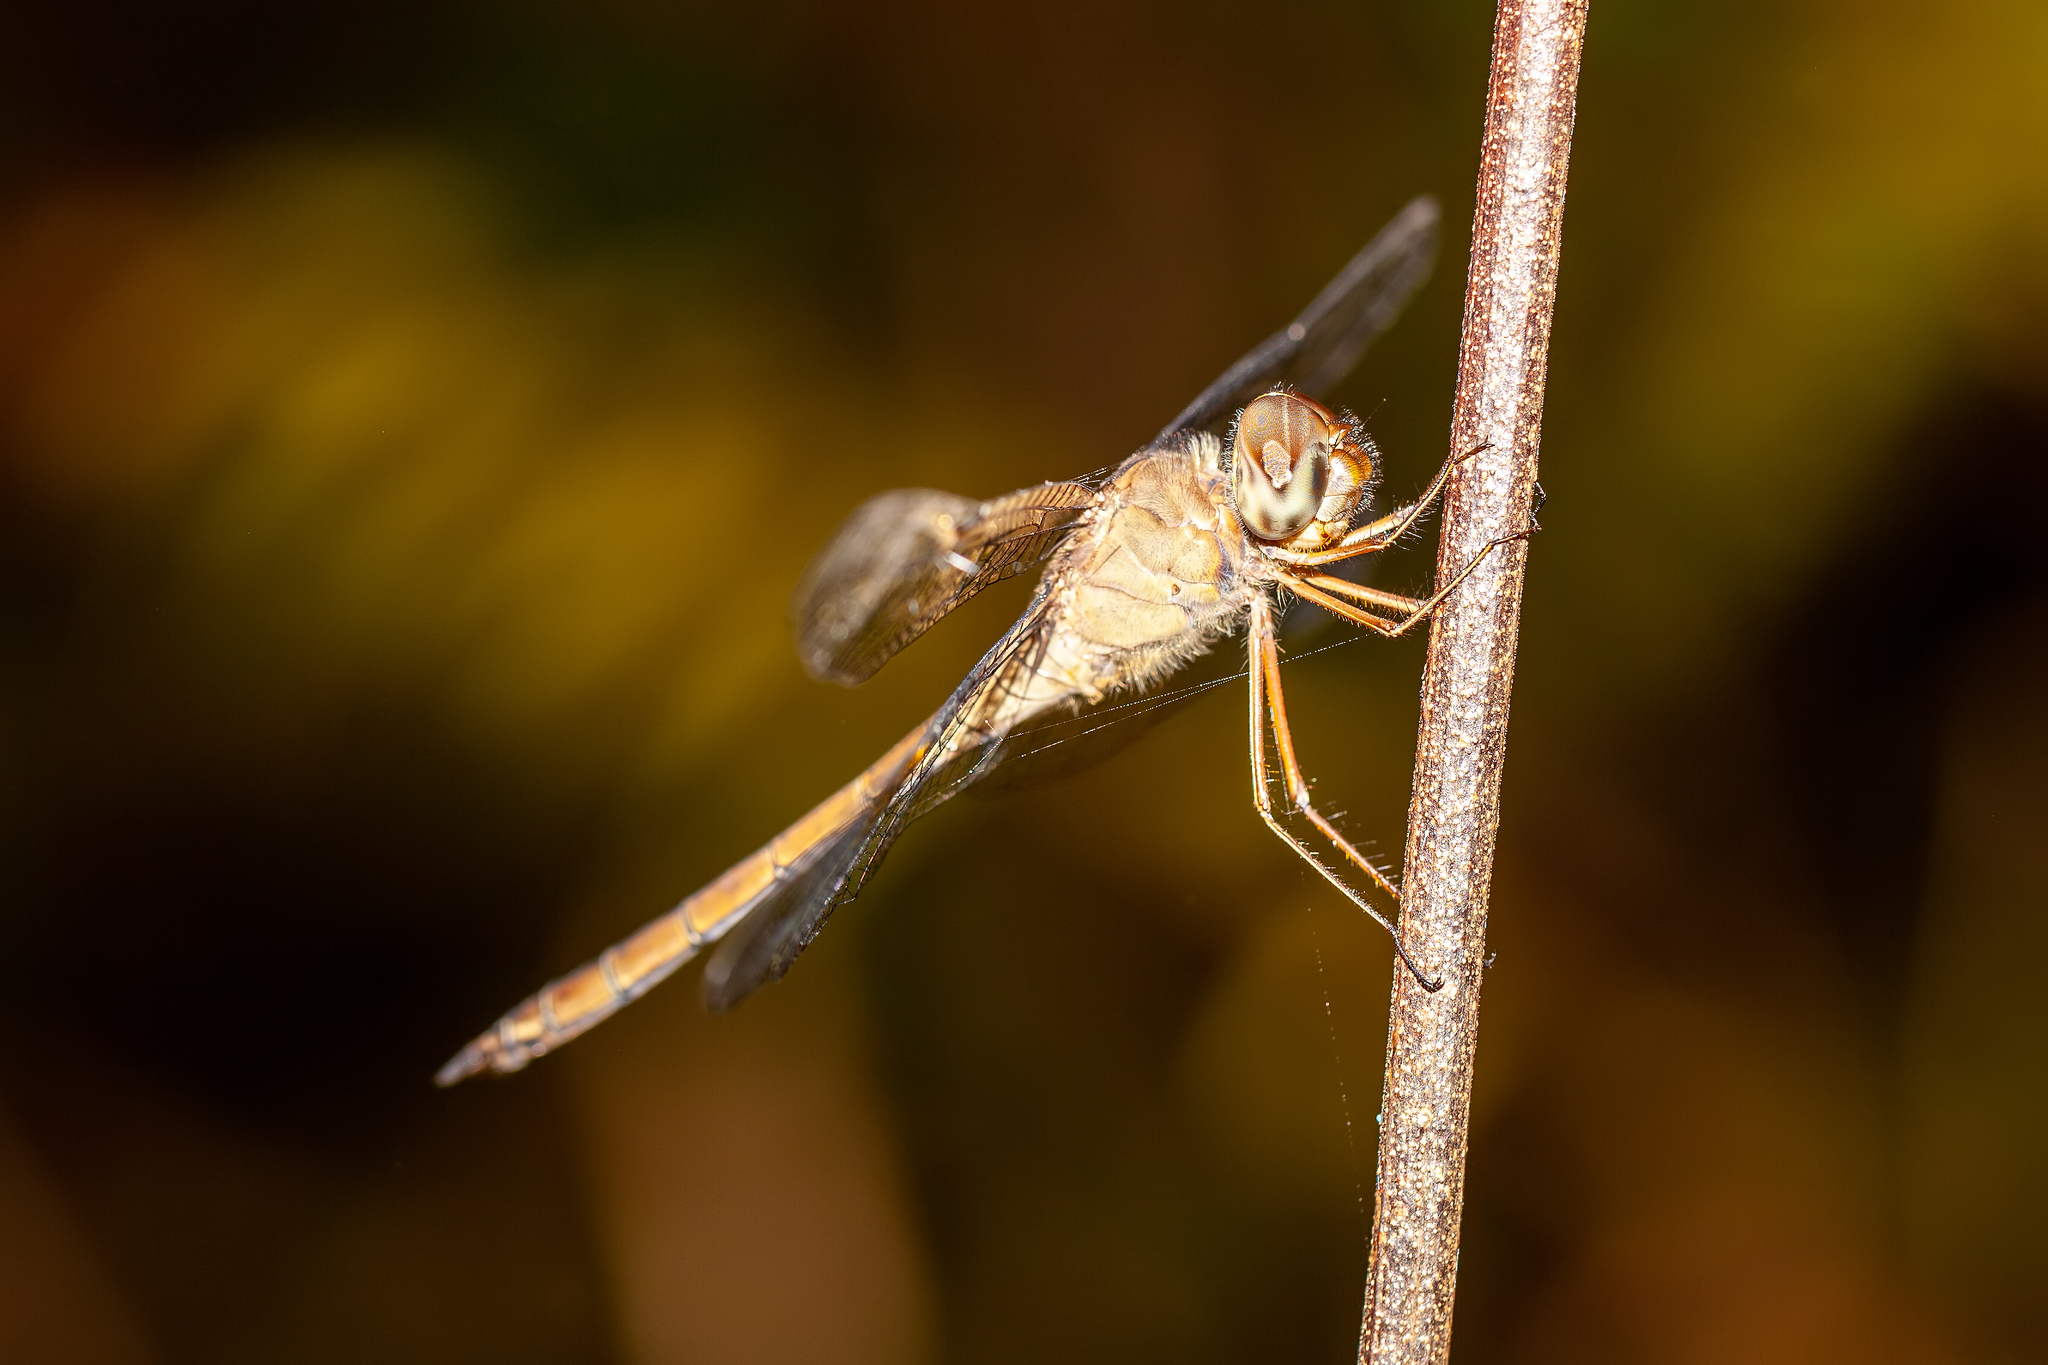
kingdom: Animalia
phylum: Arthropoda
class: Insecta
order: Odonata
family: Libellulidae
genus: Tholymis
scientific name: Tholymis citrina
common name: Evening skimmer
